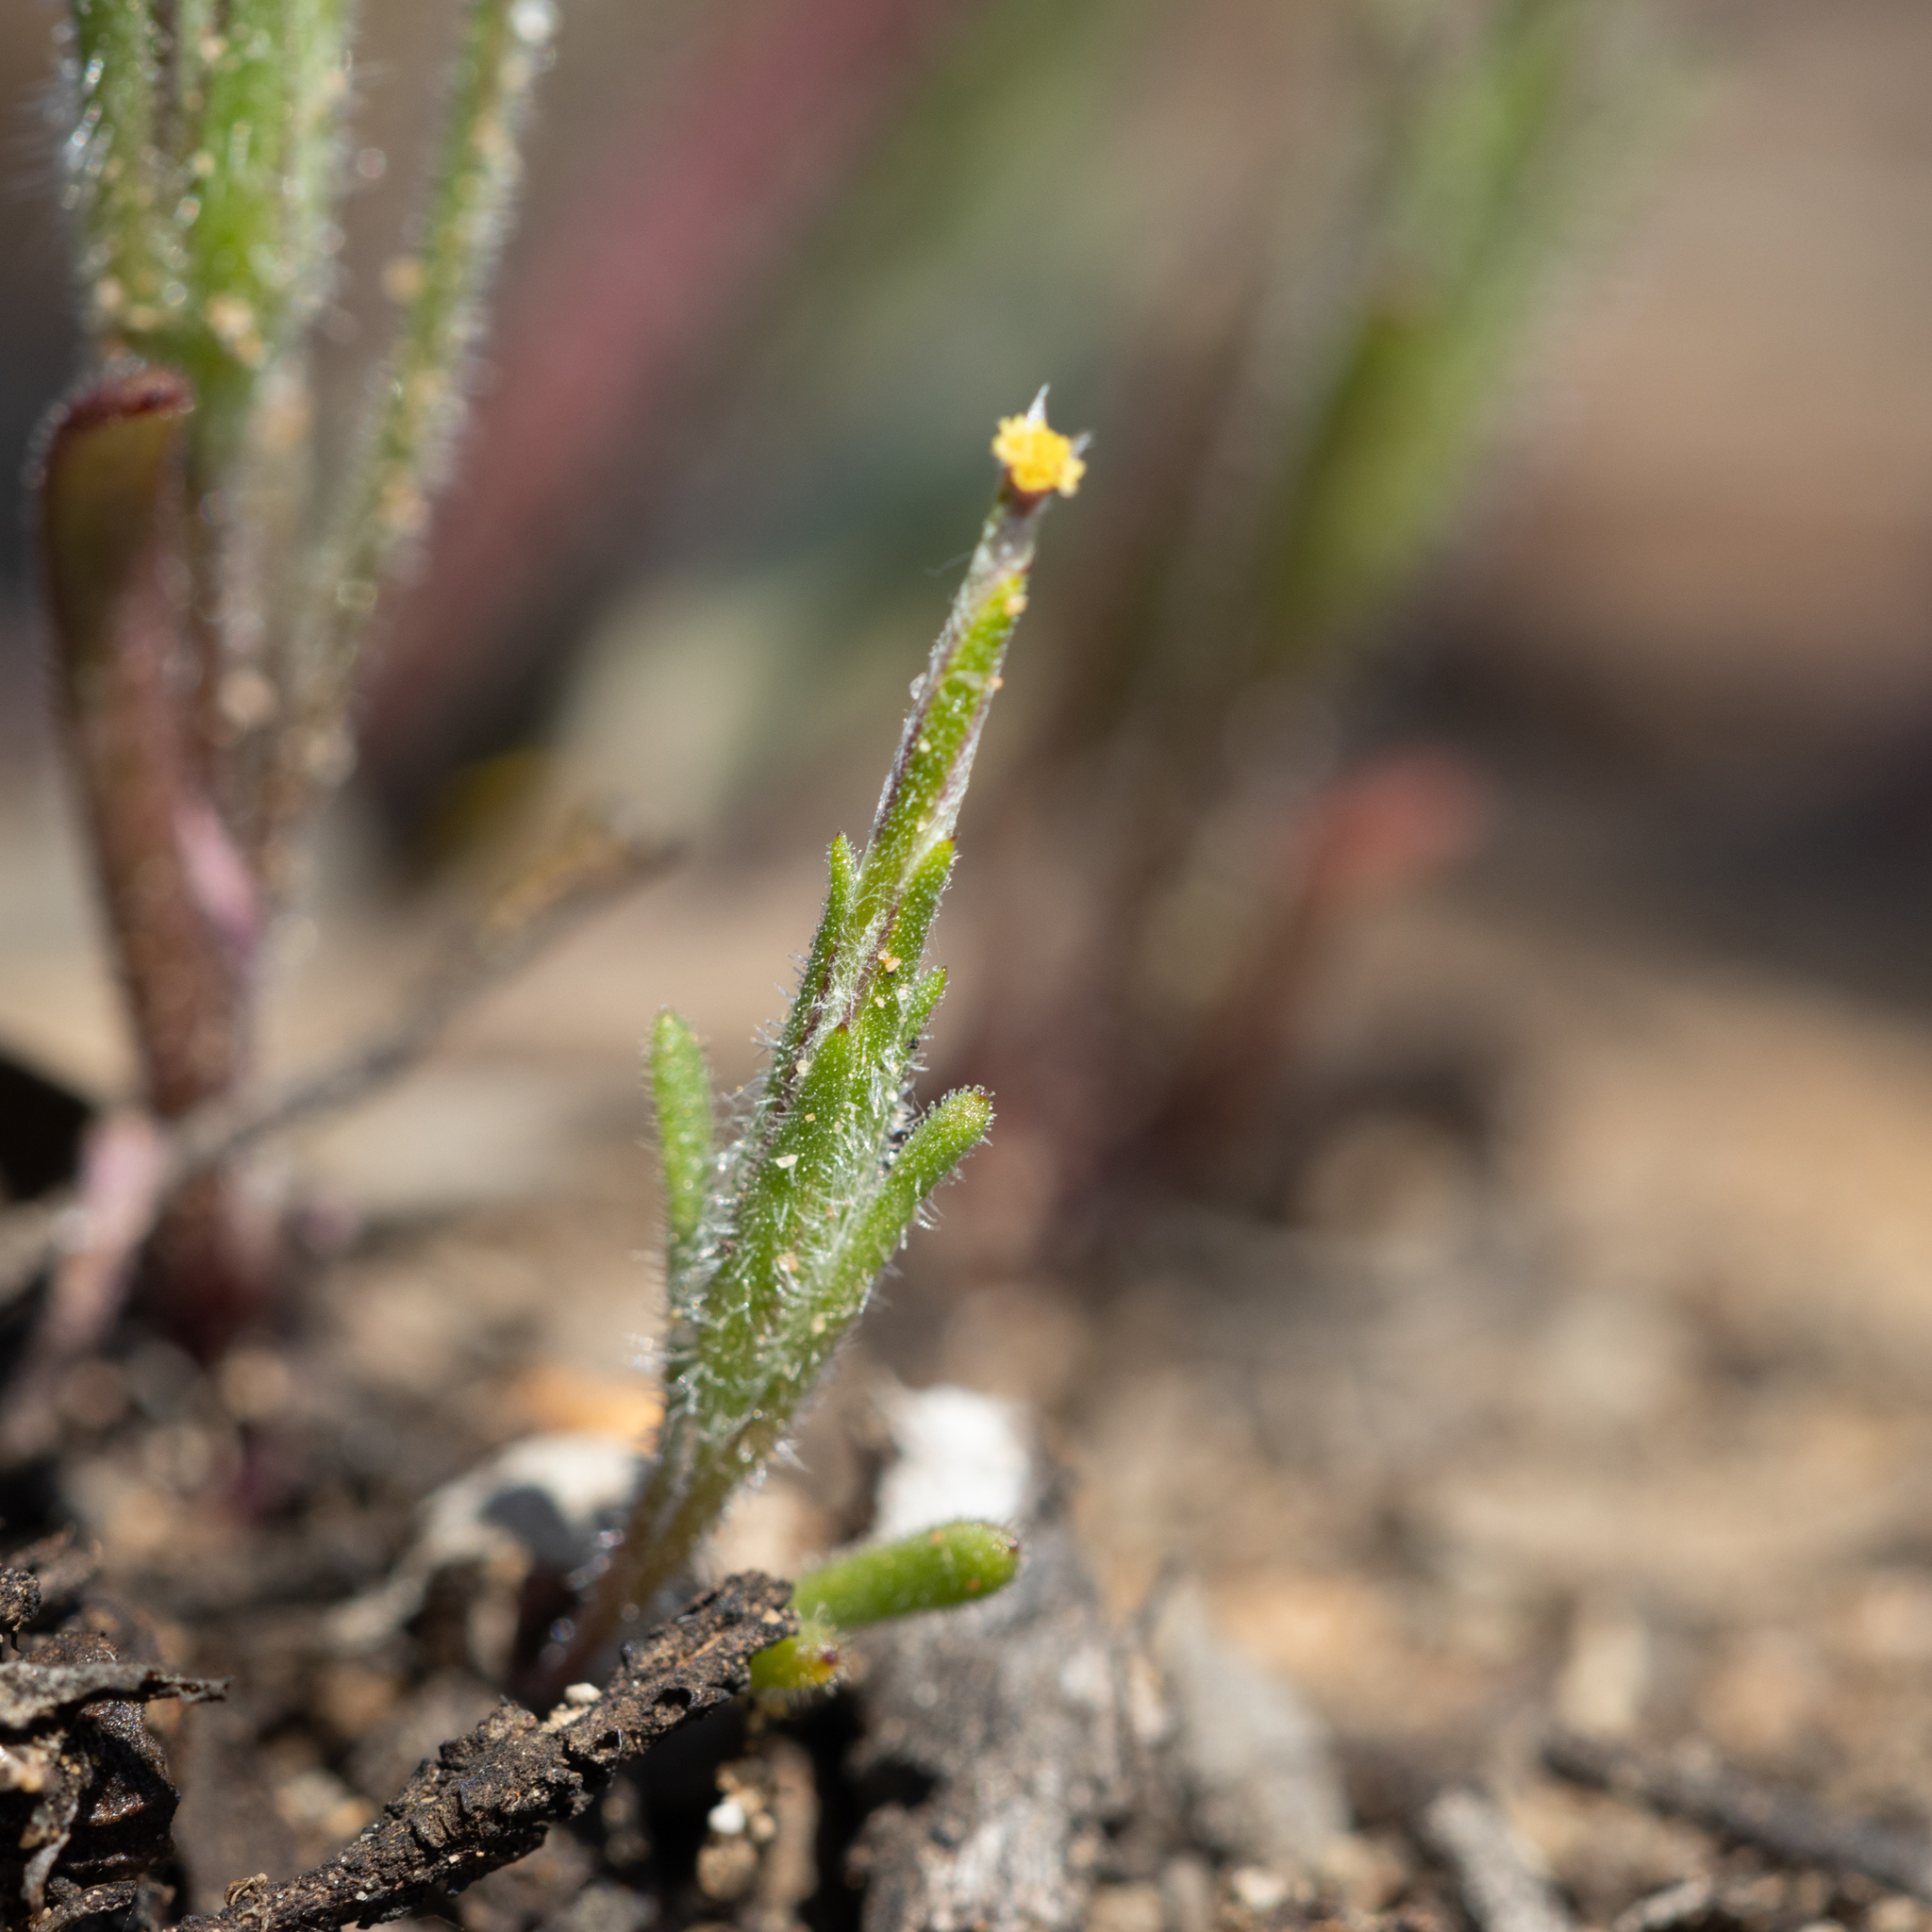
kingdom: Plantae
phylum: Tracheophyta
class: Magnoliopsida
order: Asterales
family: Asteraceae
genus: Podotheca
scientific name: Podotheca angustifolia
